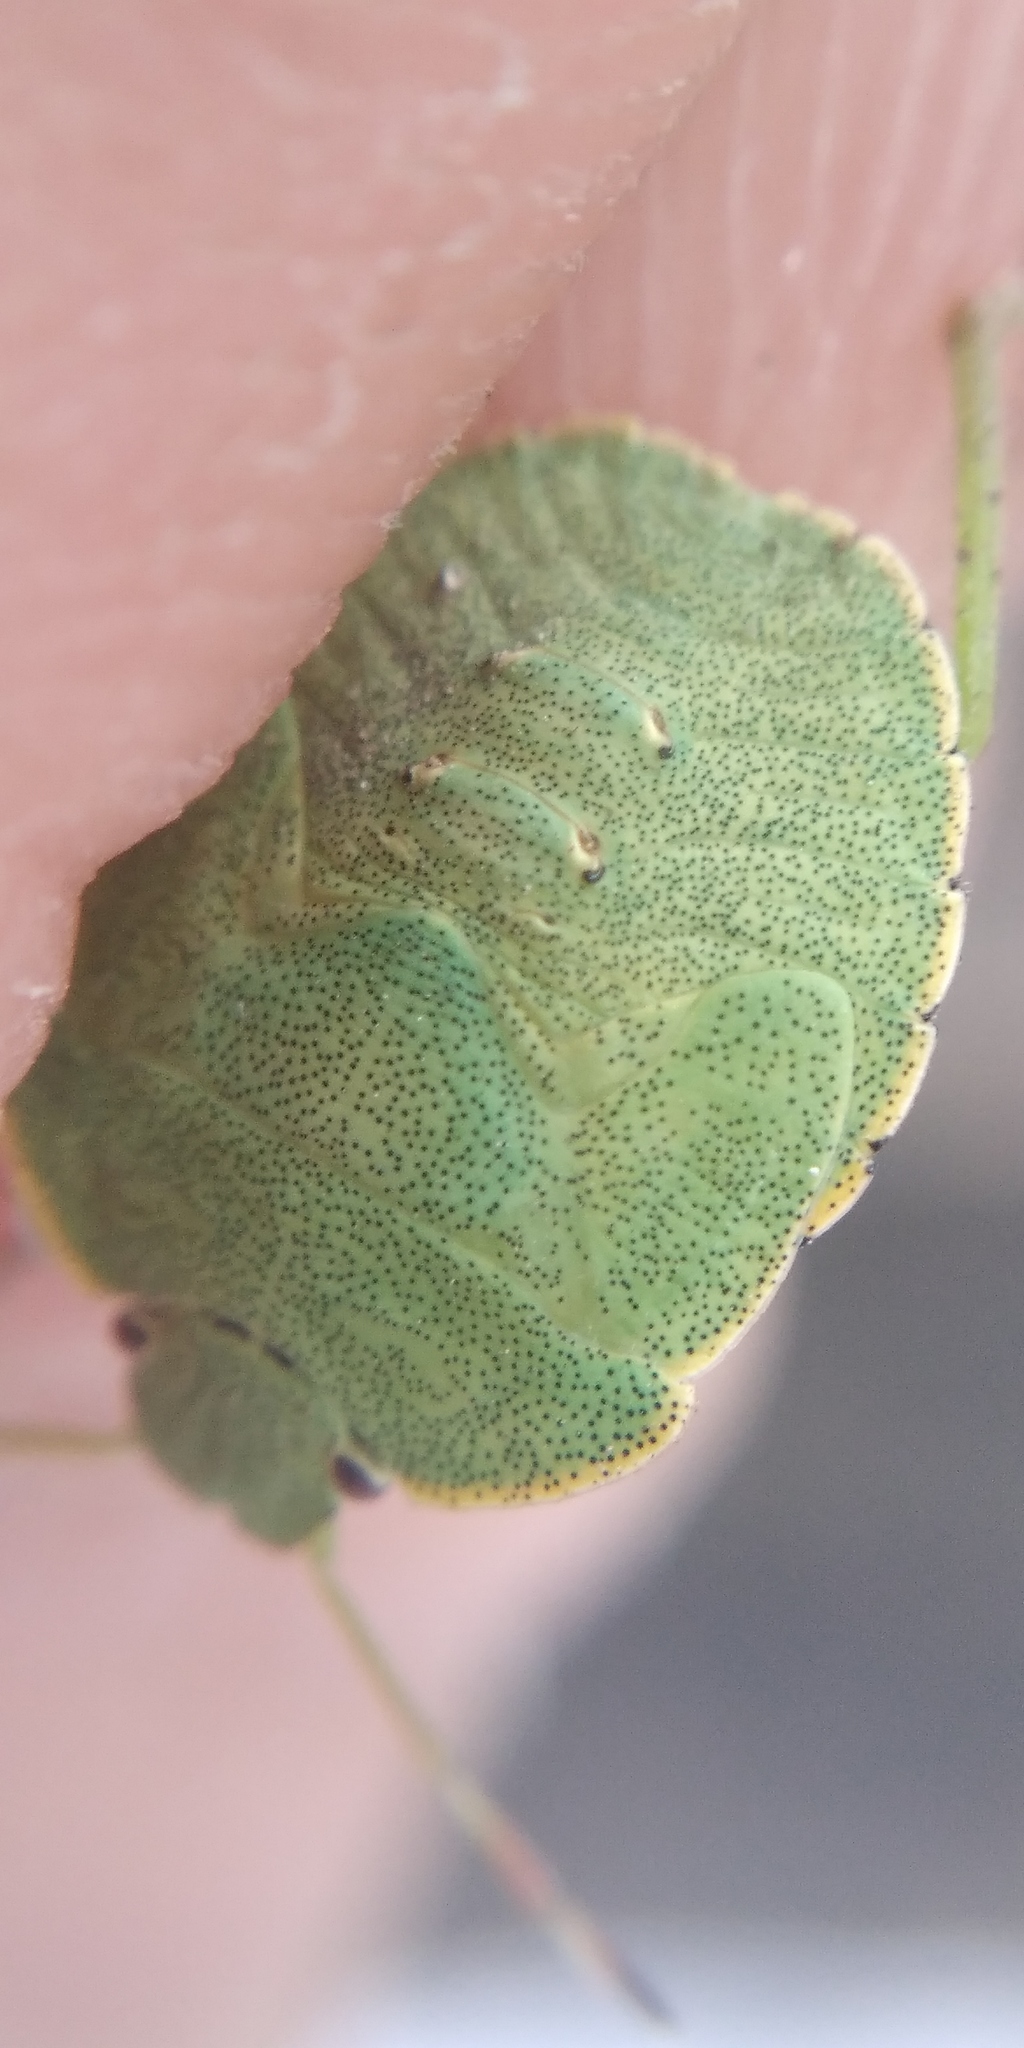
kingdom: Animalia
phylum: Arthropoda
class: Insecta
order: Hemiptera
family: Pentatomidae
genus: Palomena
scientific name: Palomena prasina
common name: Green shieldbug
